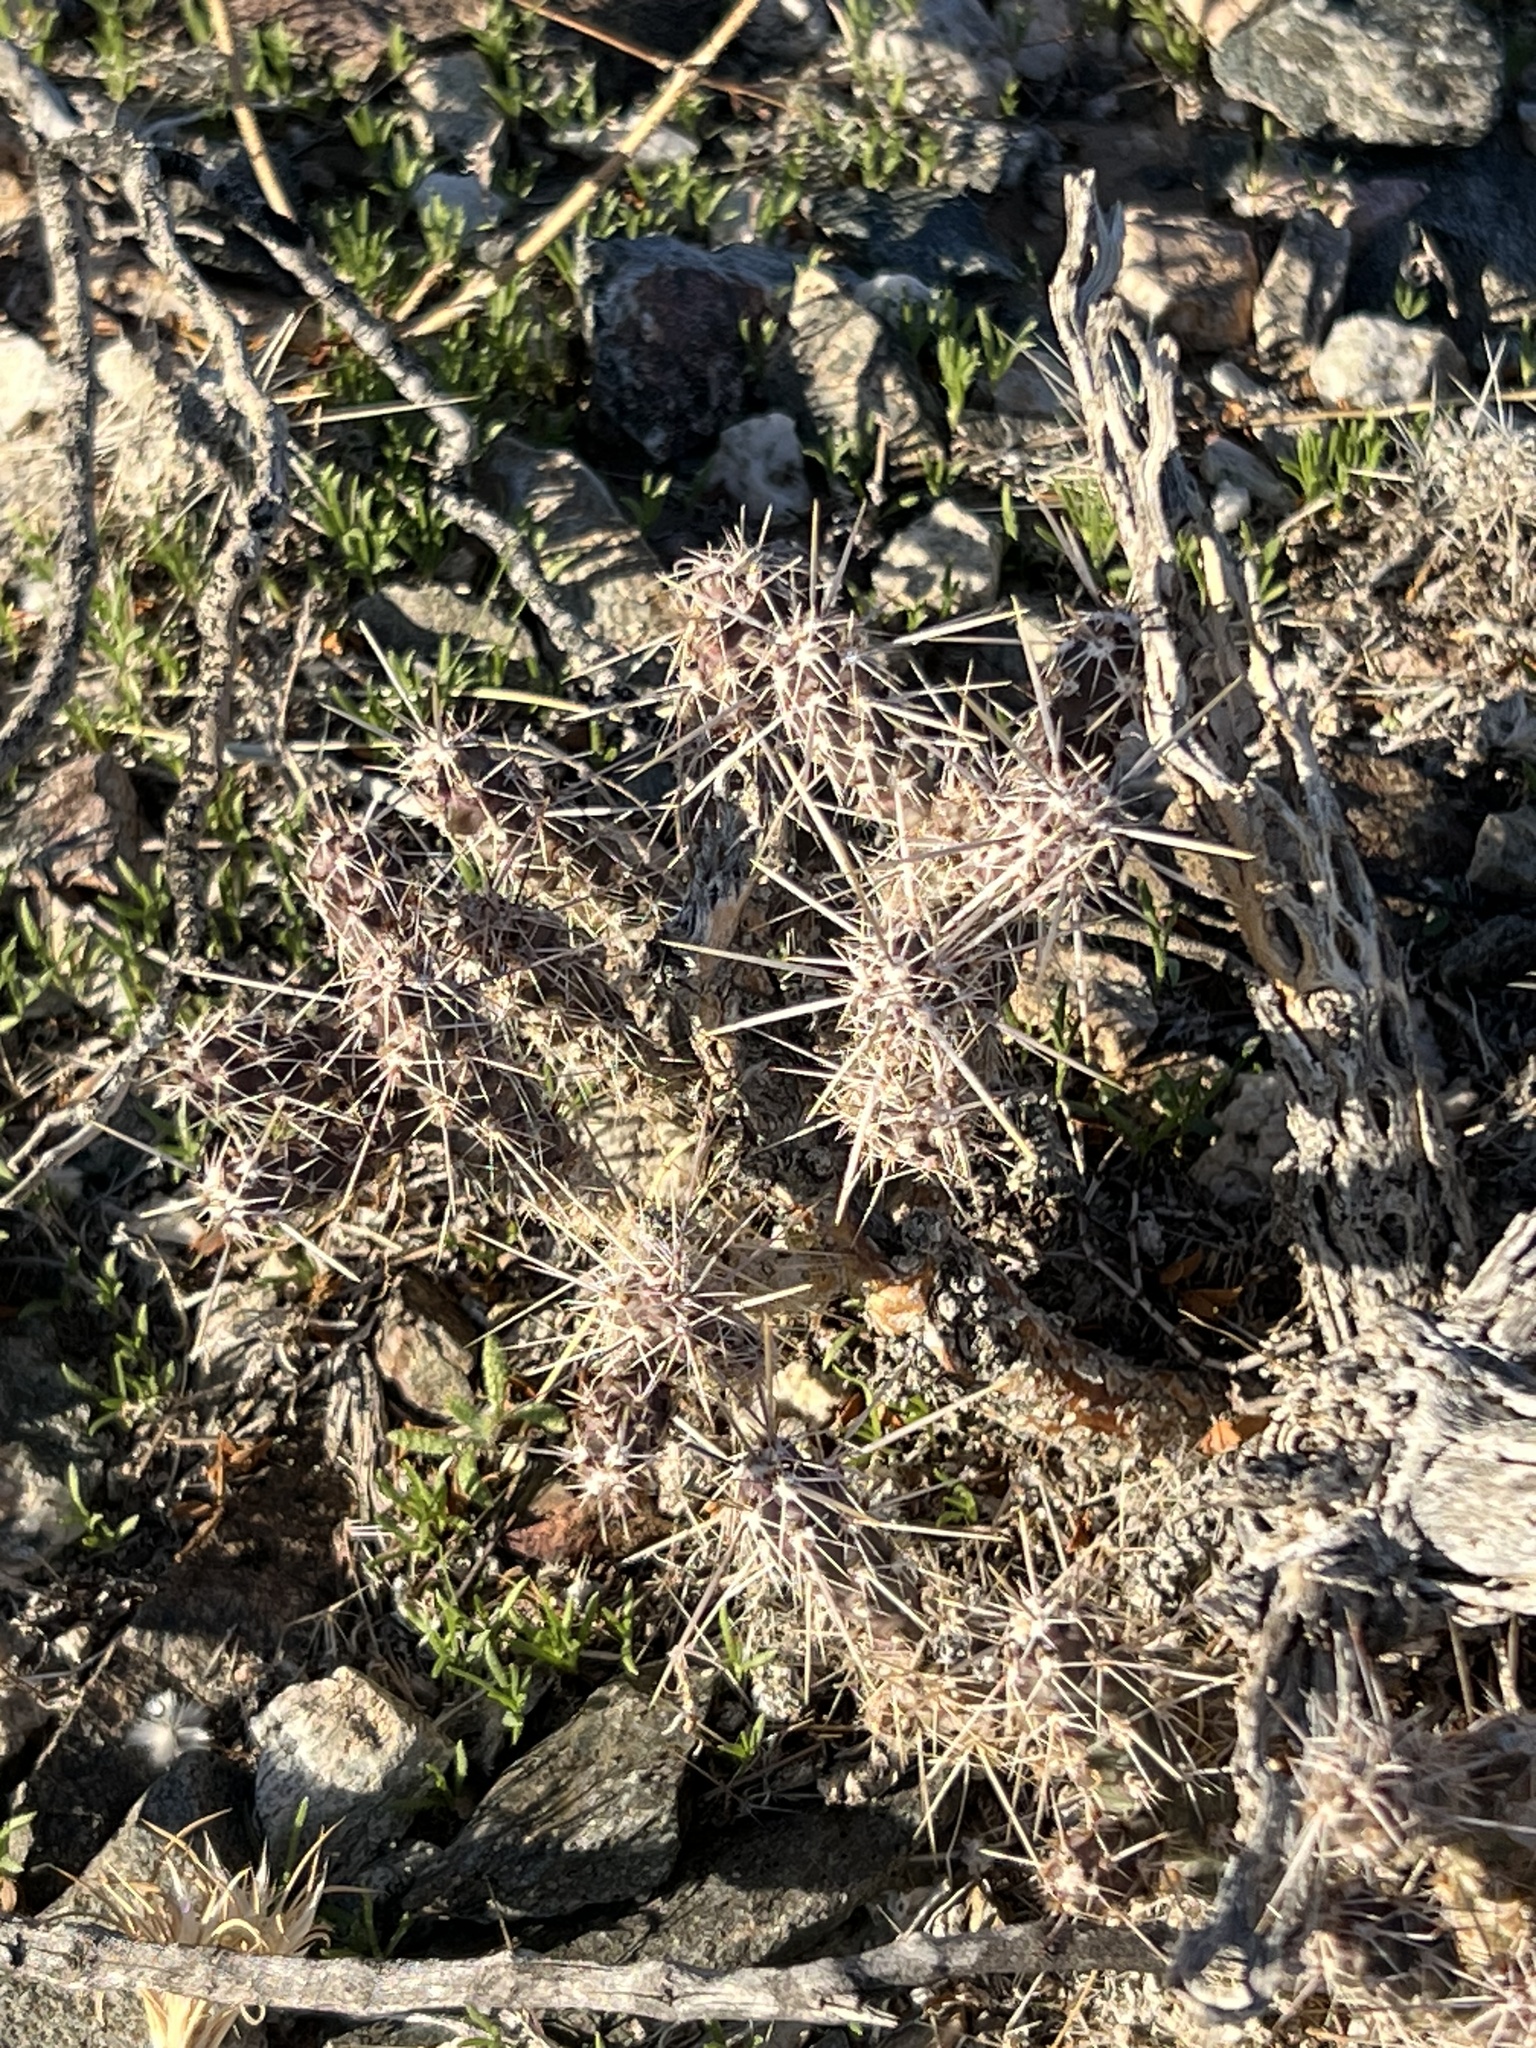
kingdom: Plantae
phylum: Tracheophyta
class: Magnoliopsida
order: Caryophyllales
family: Cactaceae
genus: Cylindropuntia
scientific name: Cylindropuntia echinocarpa
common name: Ground cholla
